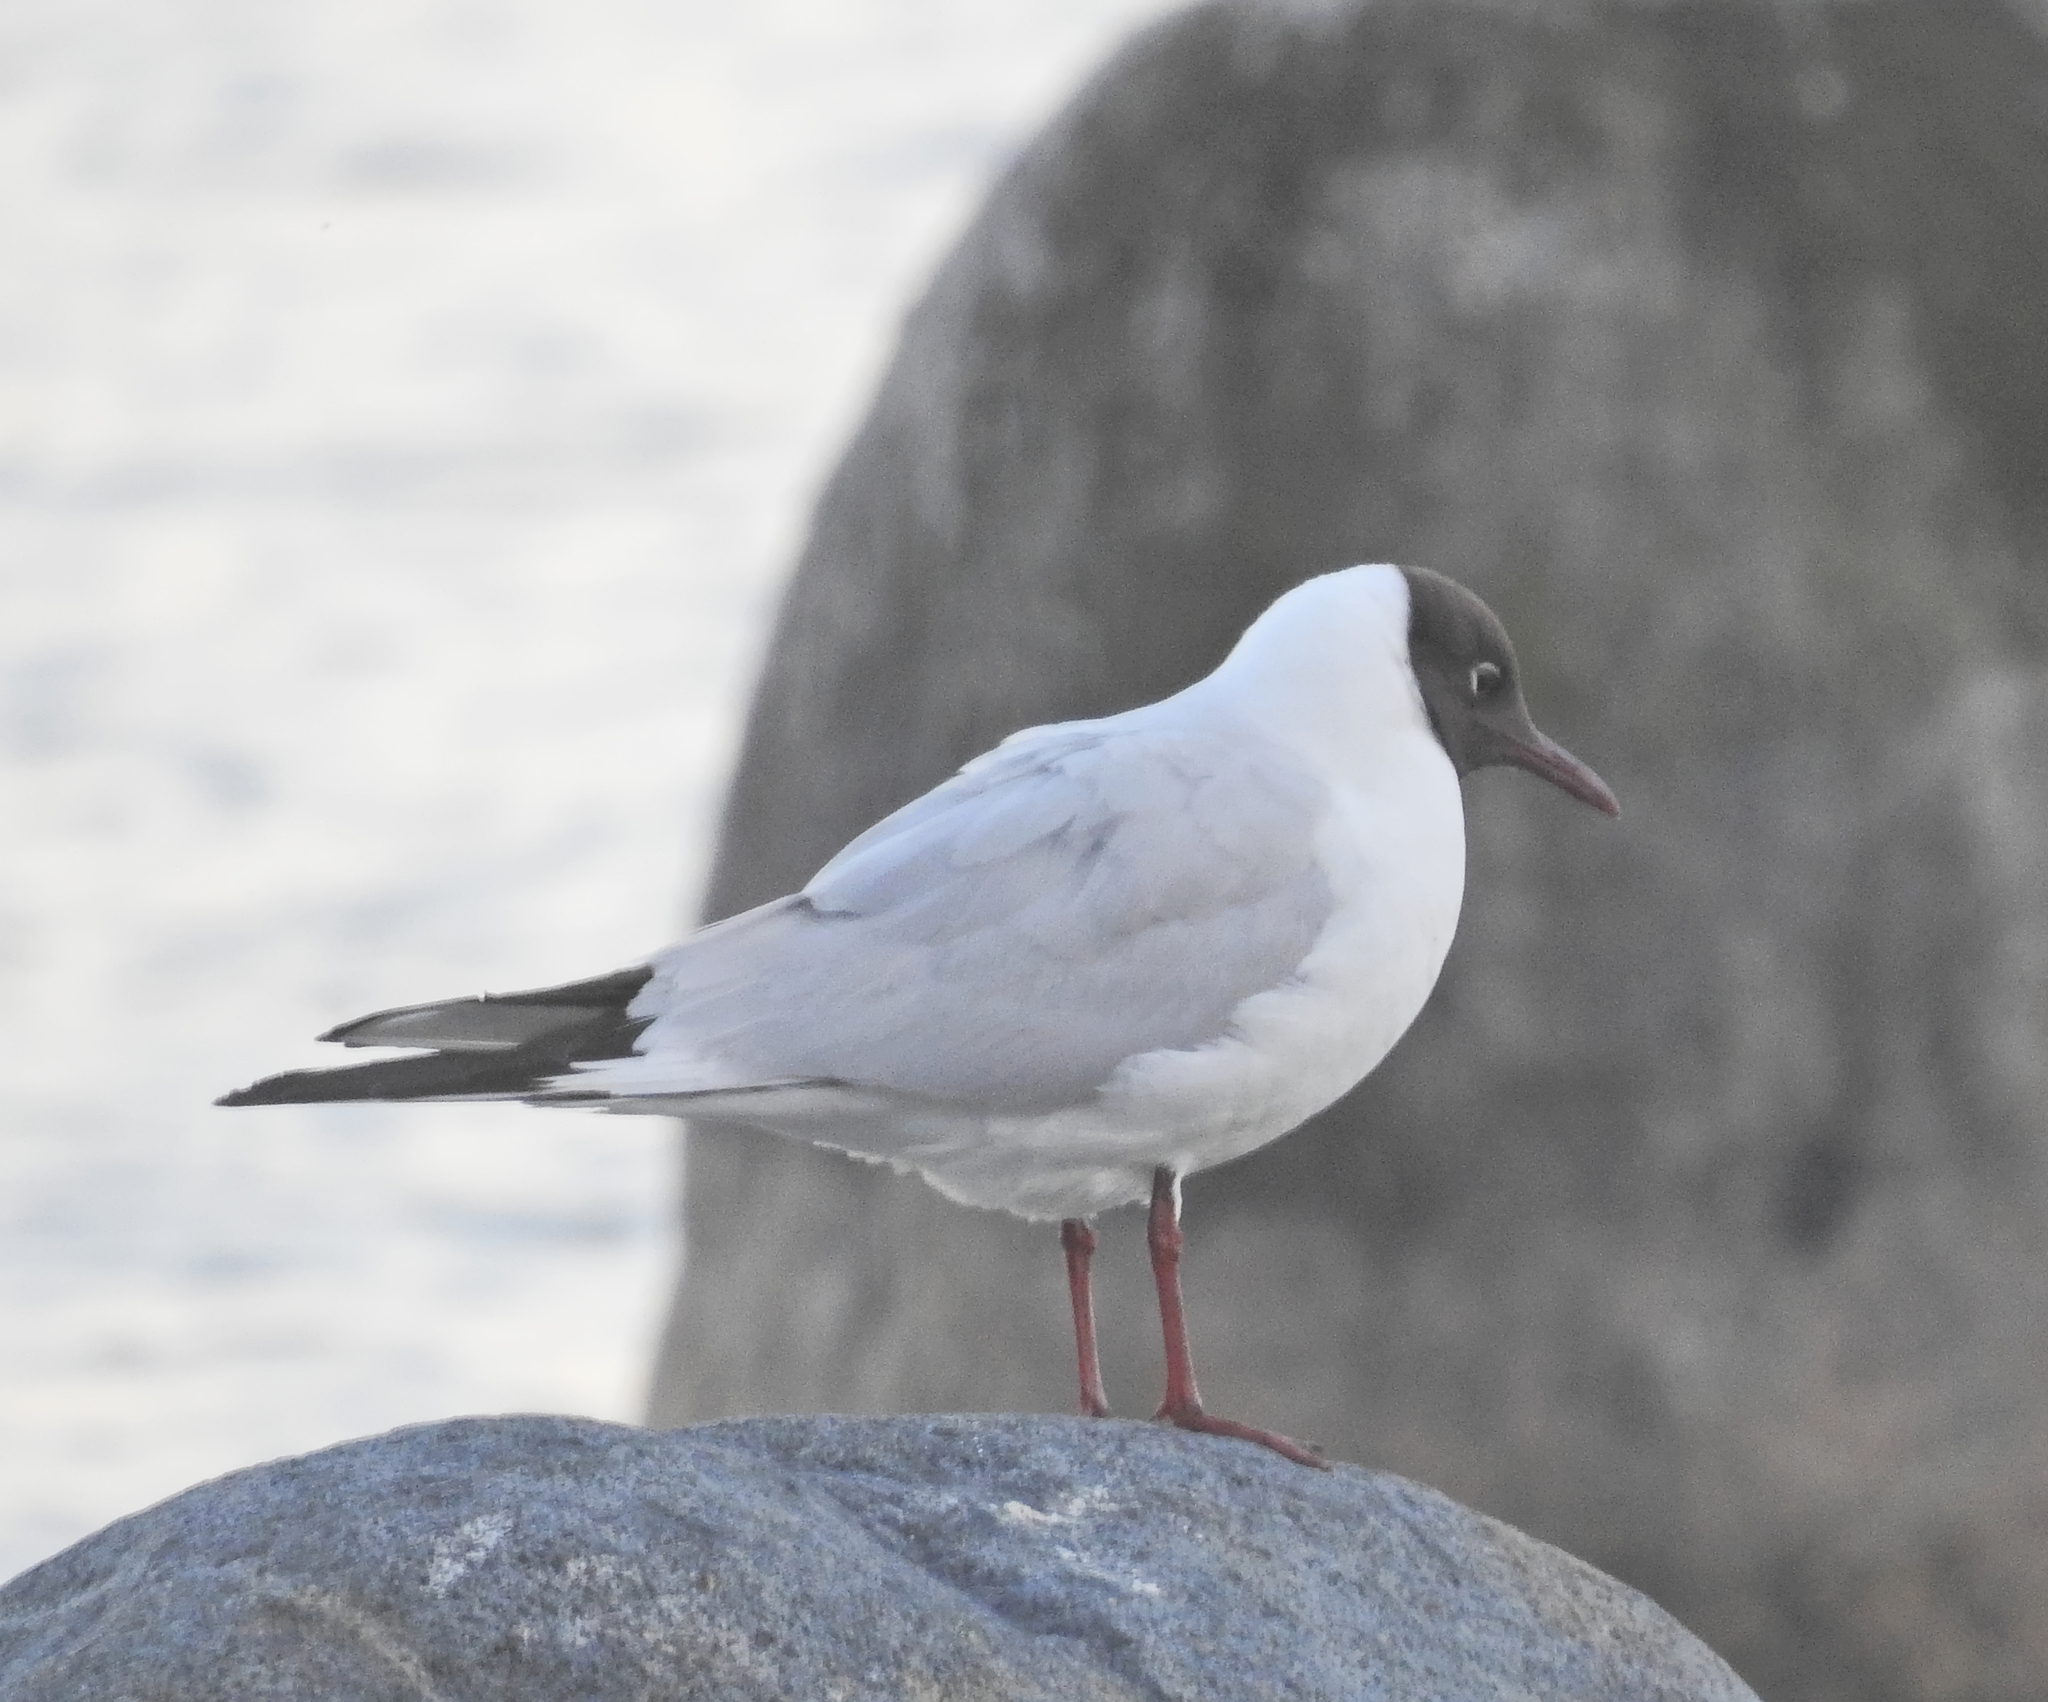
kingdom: Animalia
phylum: Chordata
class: Aves
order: Charadriiformes
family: Laridae
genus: Chroicocephalus
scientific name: Chroicocephalus ridibundus
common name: Black-headed gull
